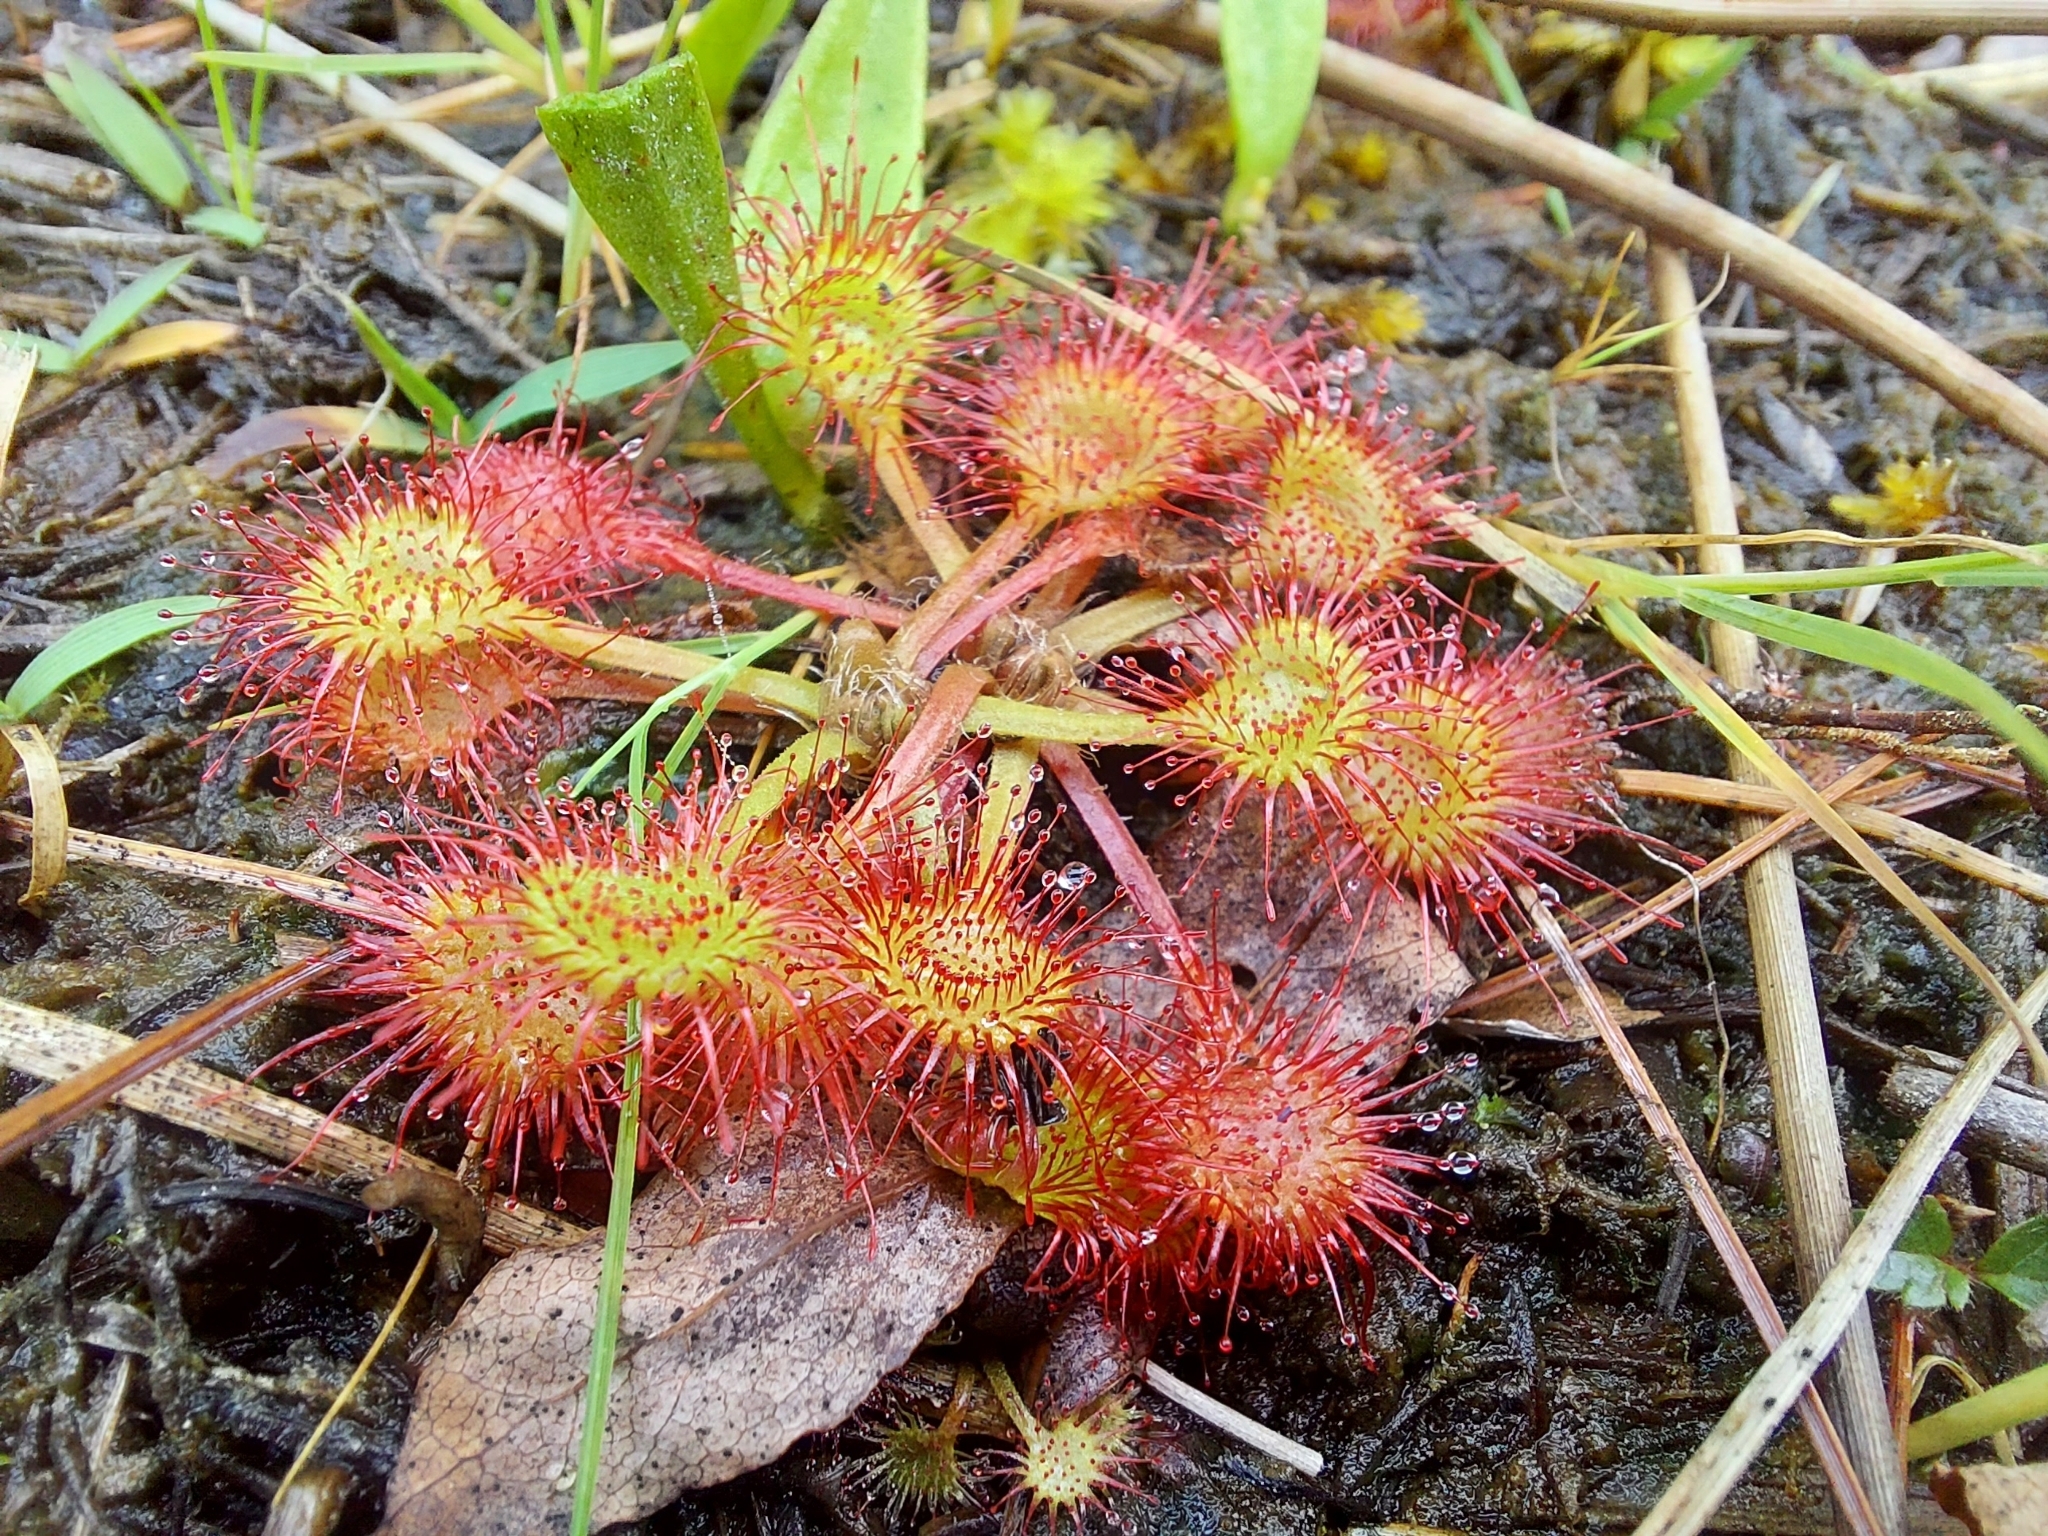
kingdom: Plantae
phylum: Tracheophyta
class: Magnoliopsida
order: Caryophyllales
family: Droseraceae
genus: Drosera
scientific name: Drosera rotundifolia
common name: Round-leaved sundew
